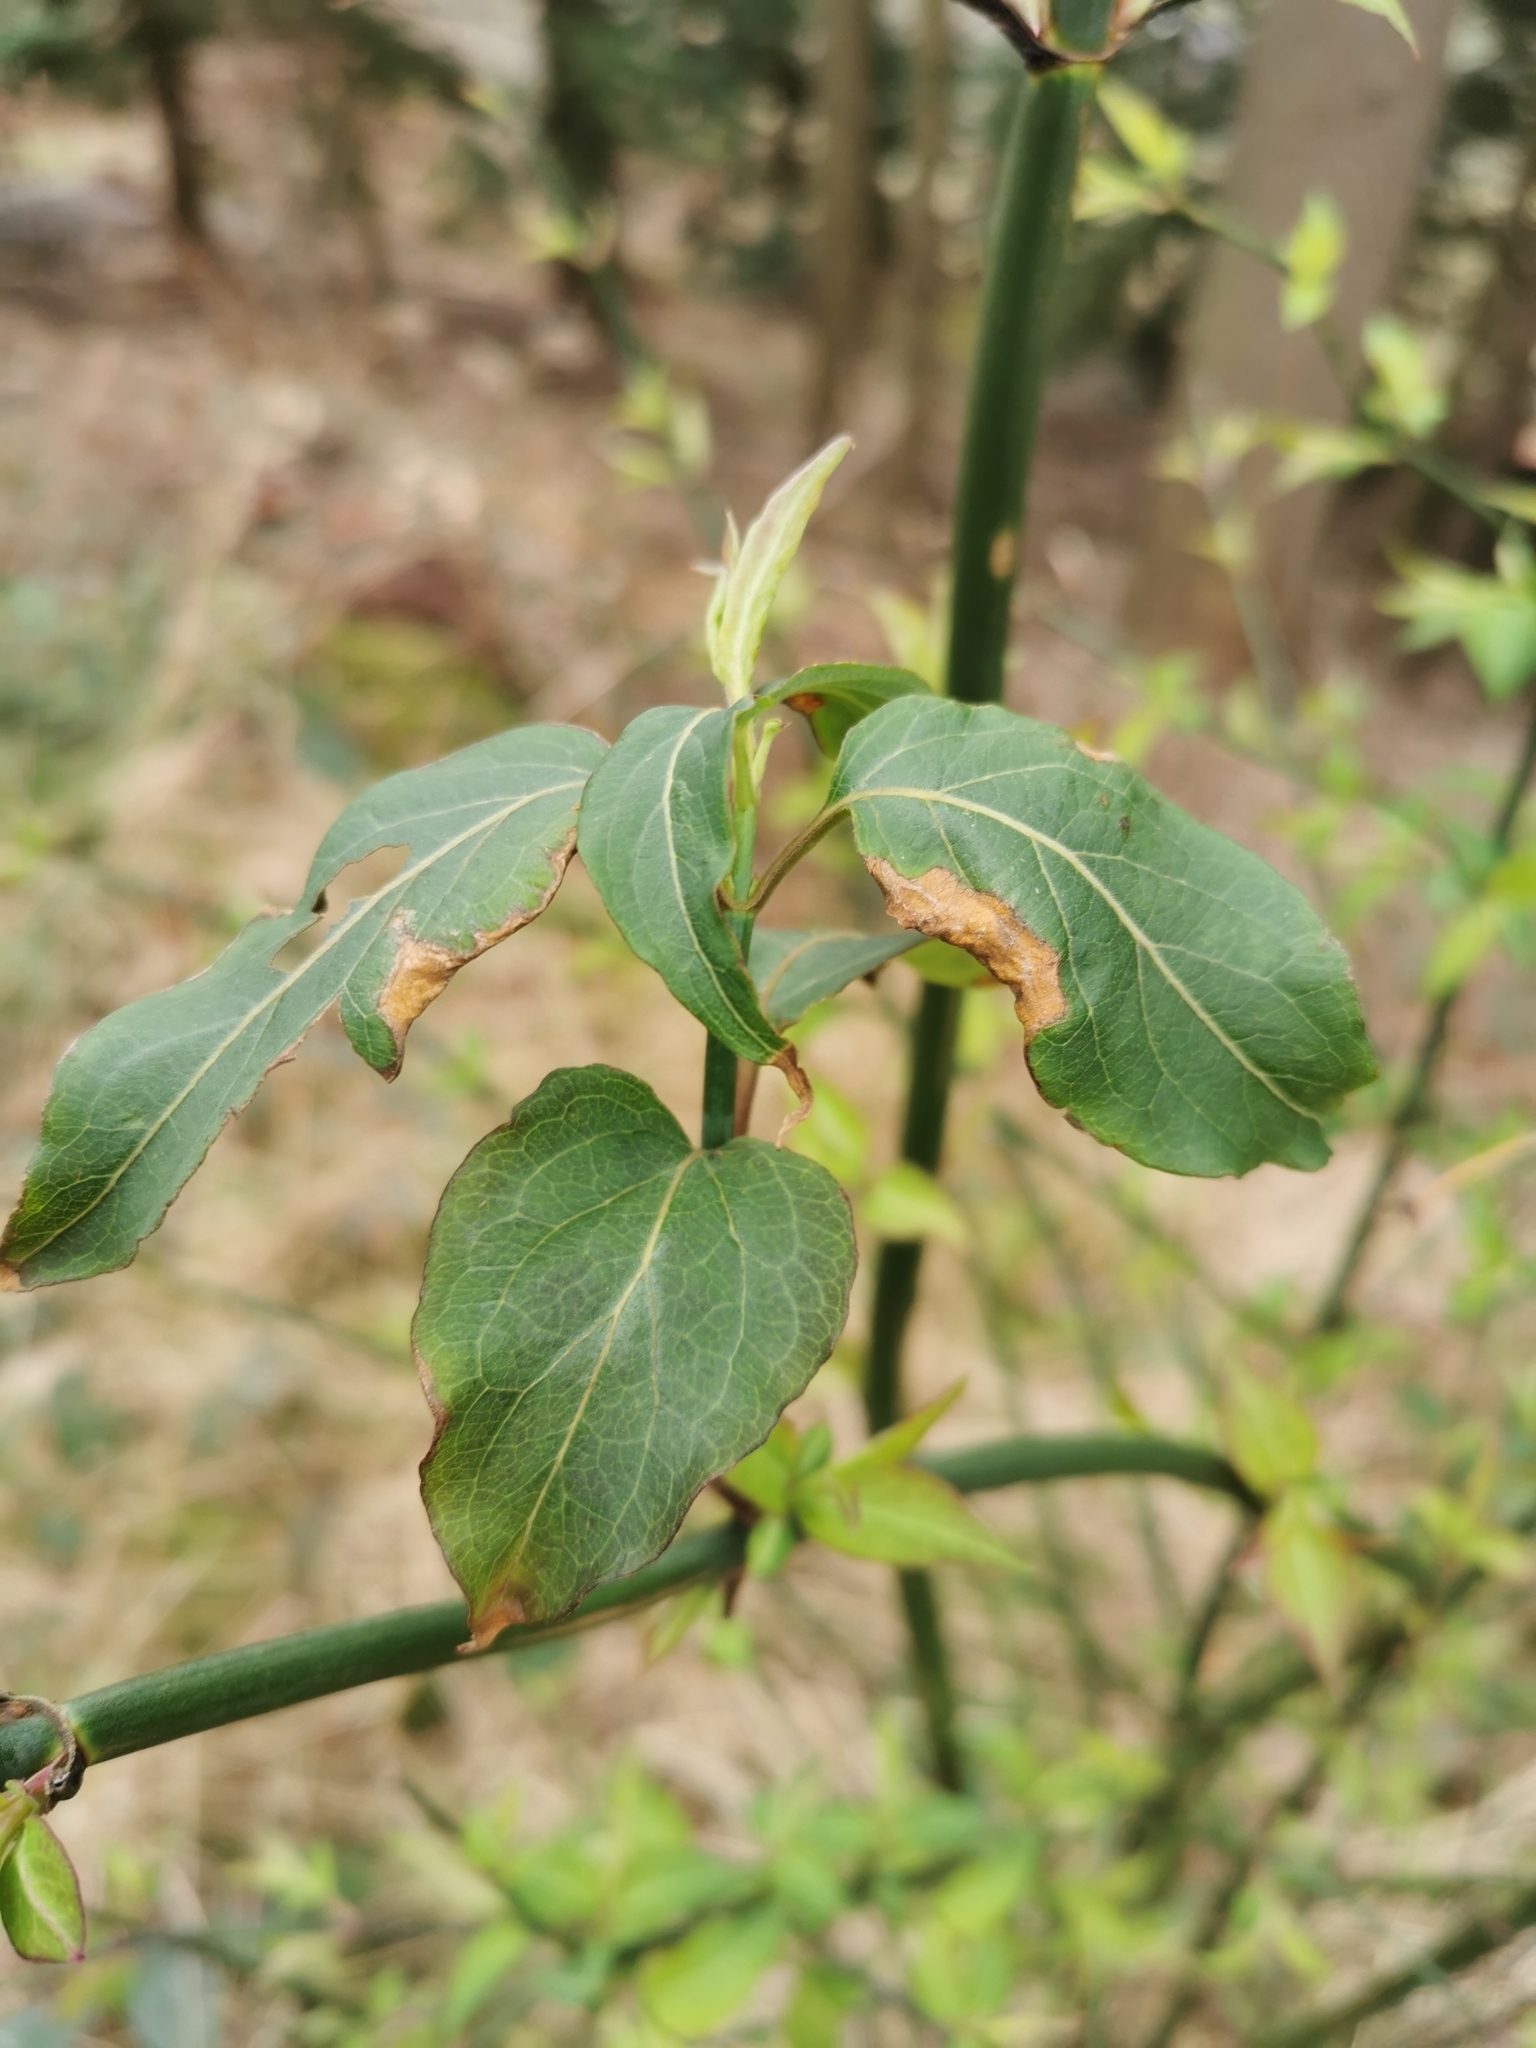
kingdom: Plantae
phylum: Tracheophyta
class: Magnoliopsida
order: Dipsacales
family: Caprifoliaceae
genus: Leycesteria
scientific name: Leycesteria formosa
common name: Himalayan honeysuckle
